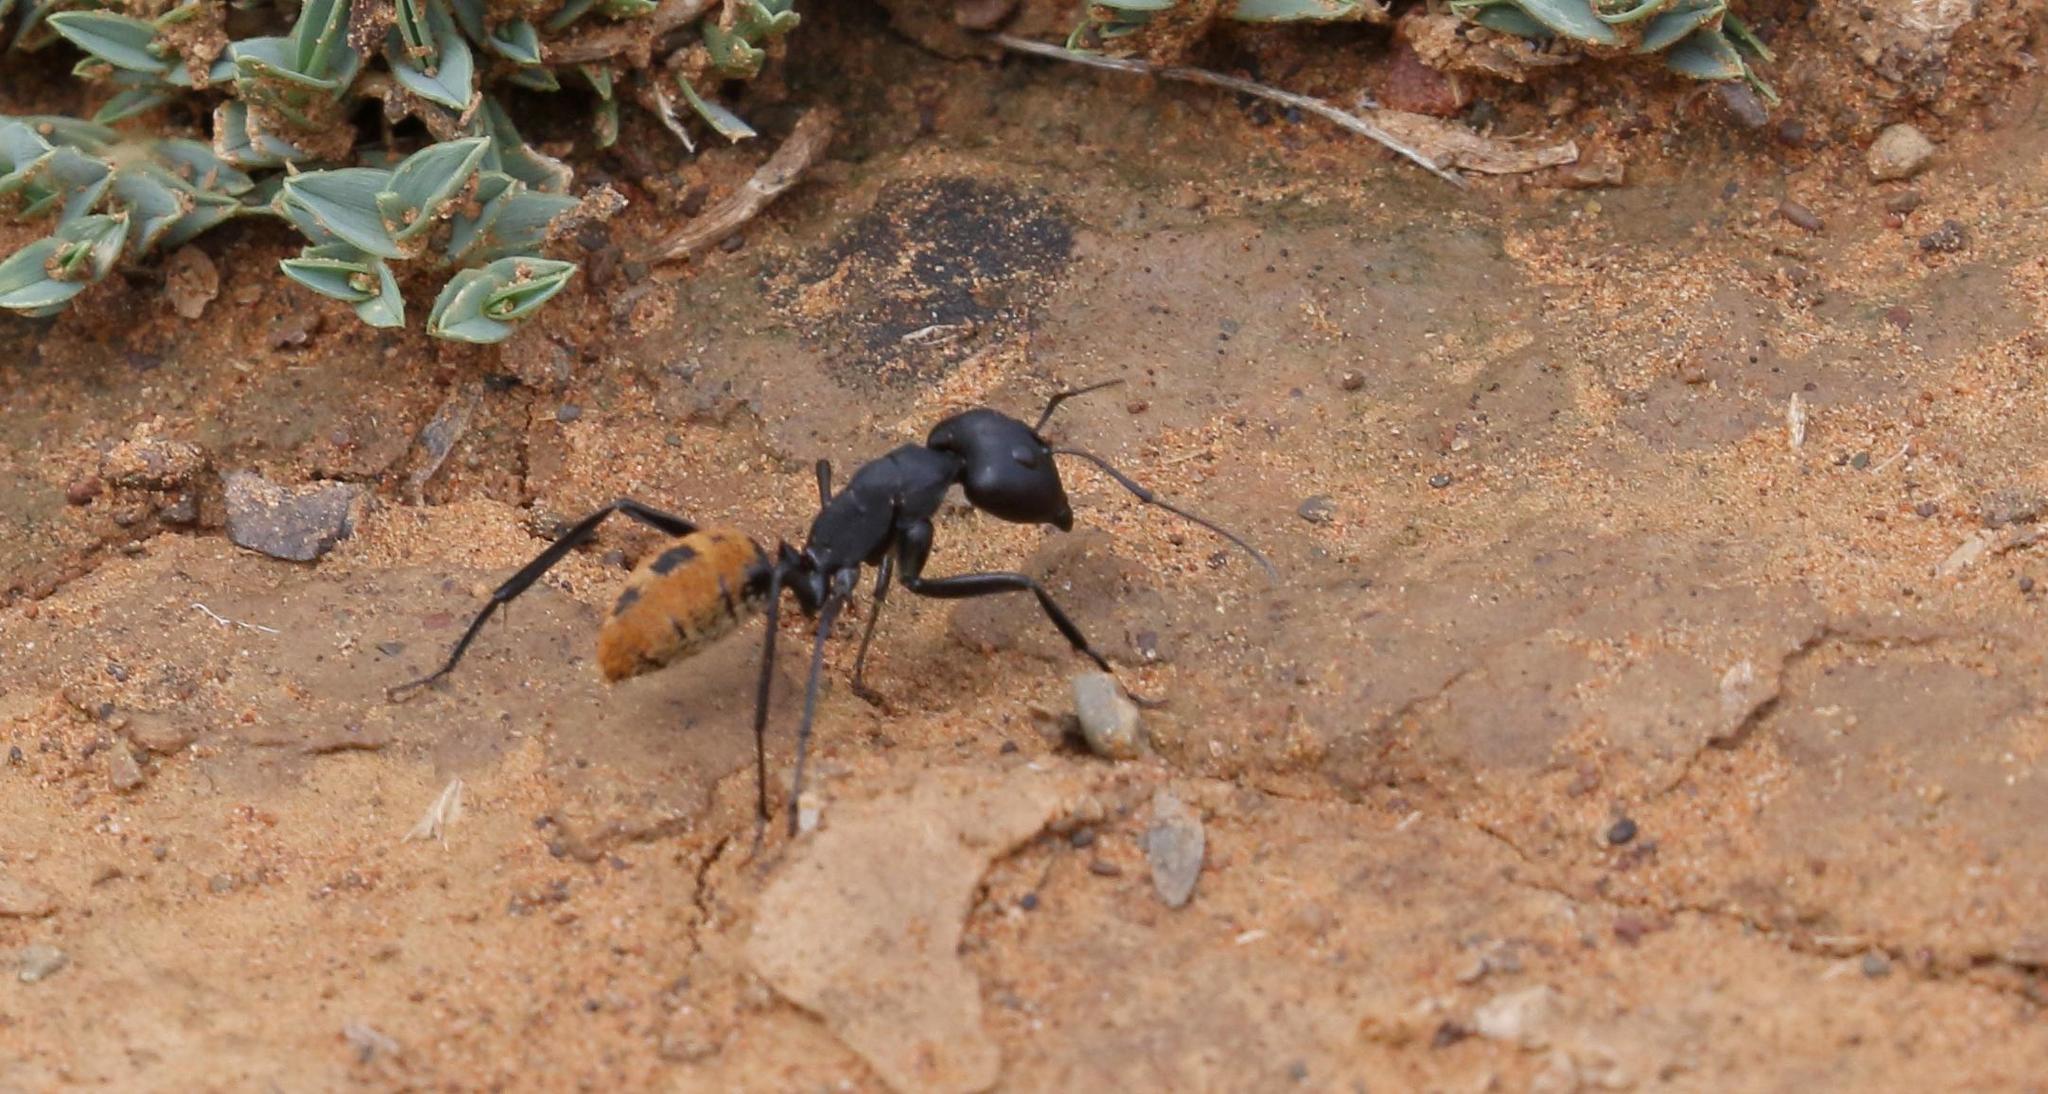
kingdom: Animalia
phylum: Arthropoda
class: Insecta
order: Hymenoptera
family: Formicidae
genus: Camponotus
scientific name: Camponotus fulvopilosus
